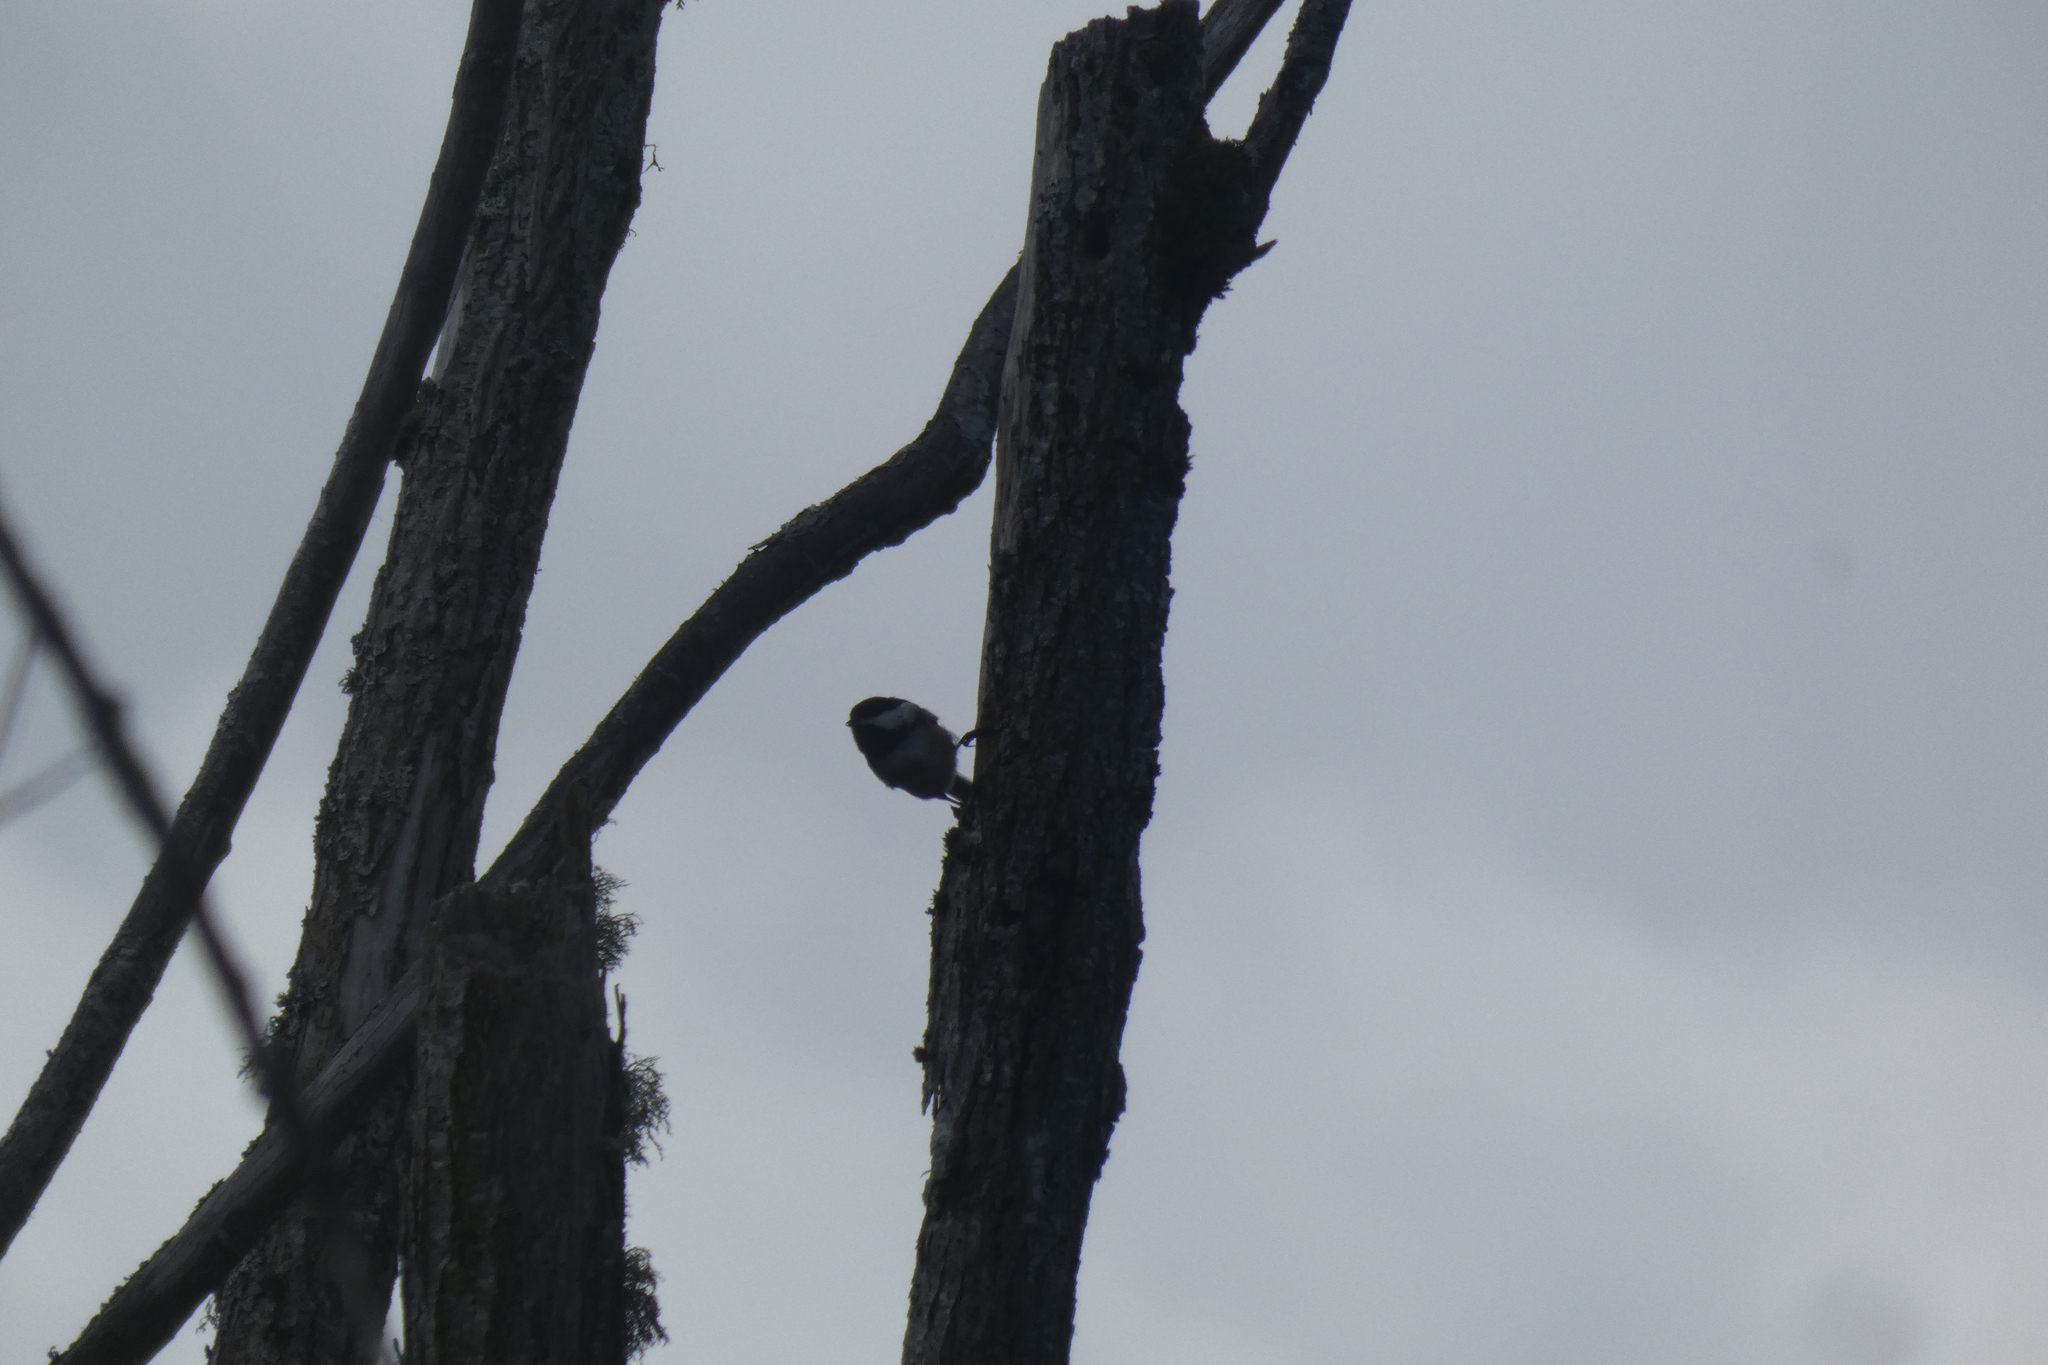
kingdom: Animalia
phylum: Chordata
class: Aves
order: Passeriformes
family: Paridae
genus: Poecile
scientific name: Poecile atricapillus
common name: Black-capped chickadee
